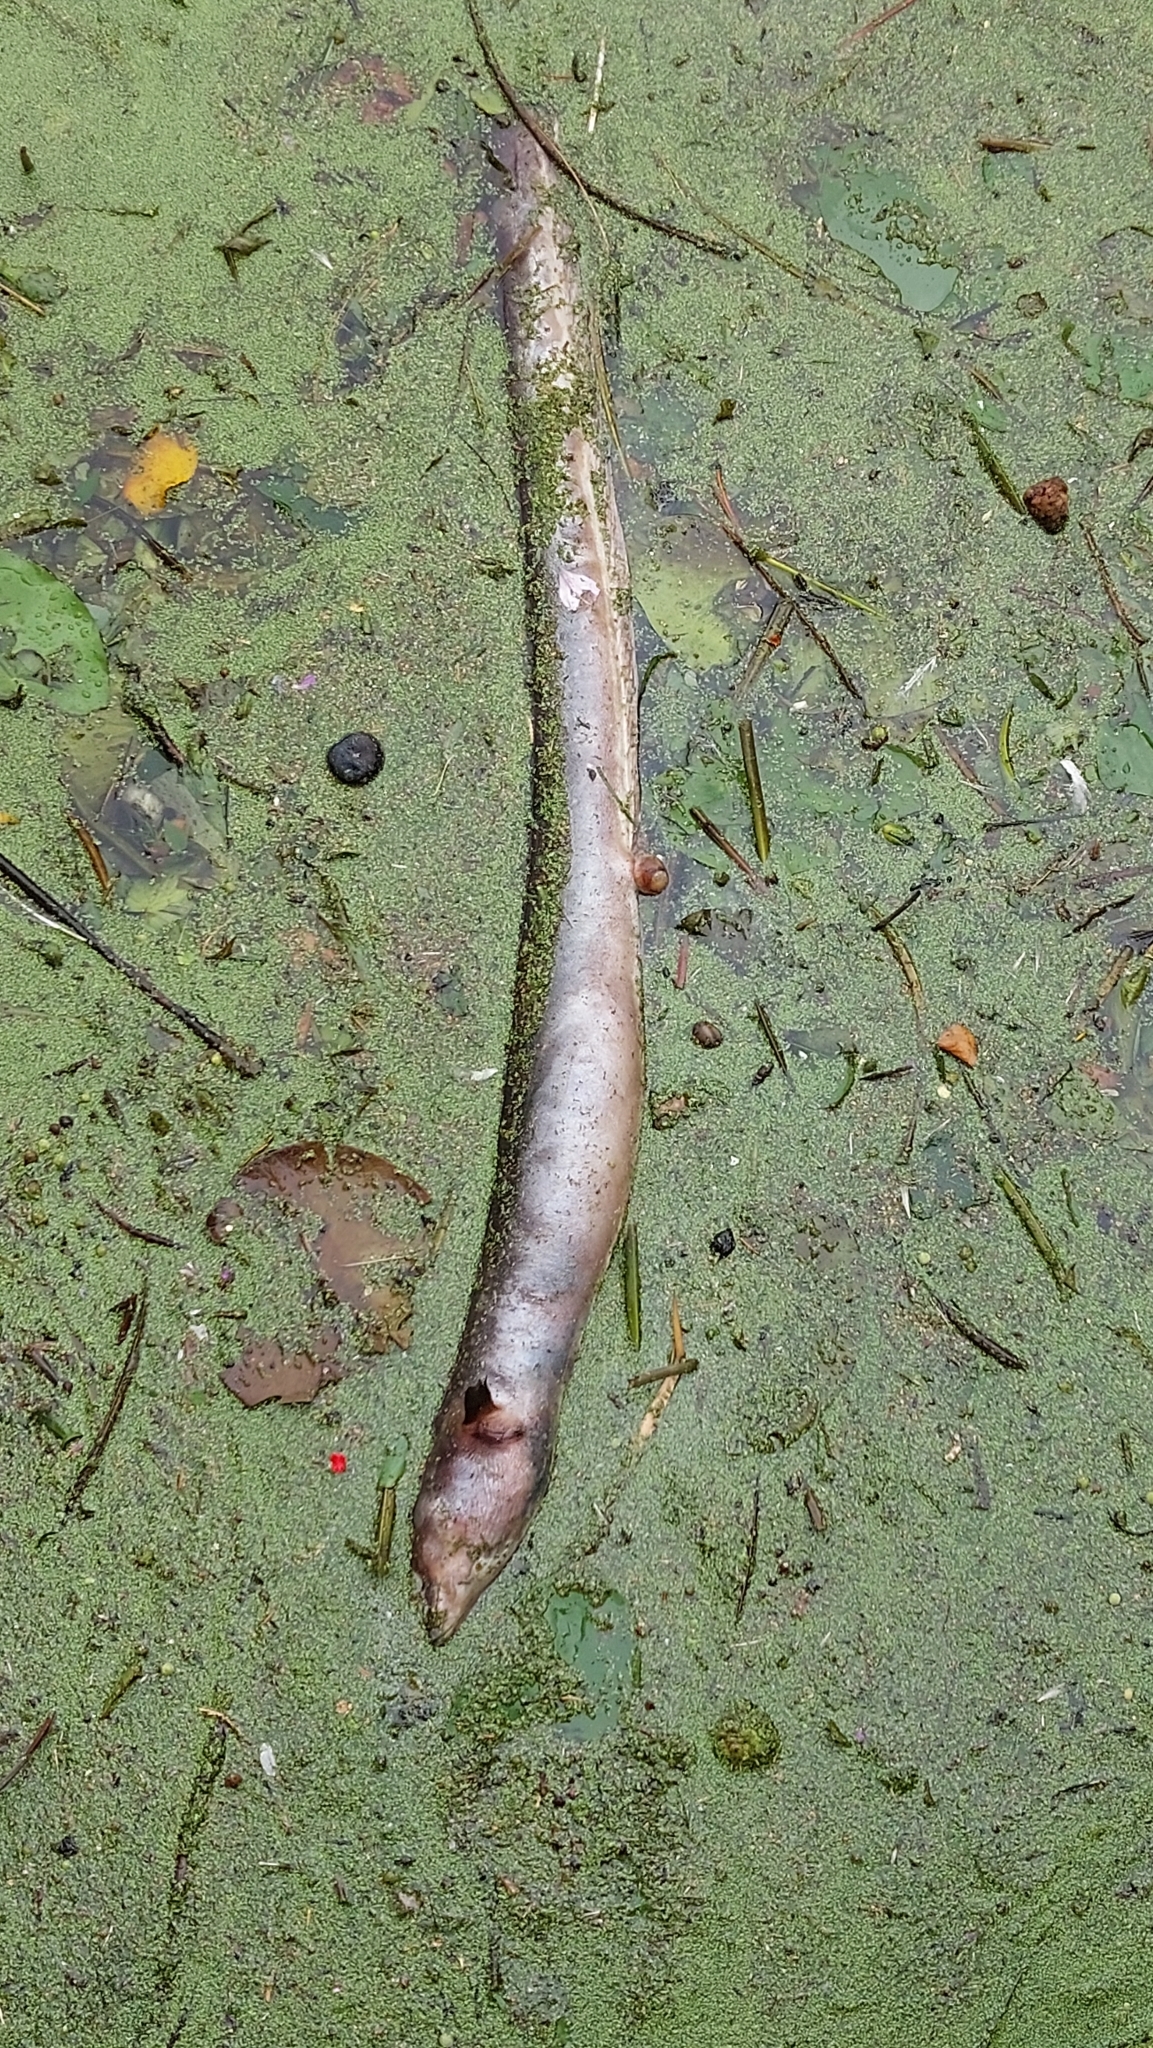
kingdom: Animalia
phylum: Chordata
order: Anguilliformes
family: Anguillidae
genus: Anguilla
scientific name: Anguilla anguilla
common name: European eel
